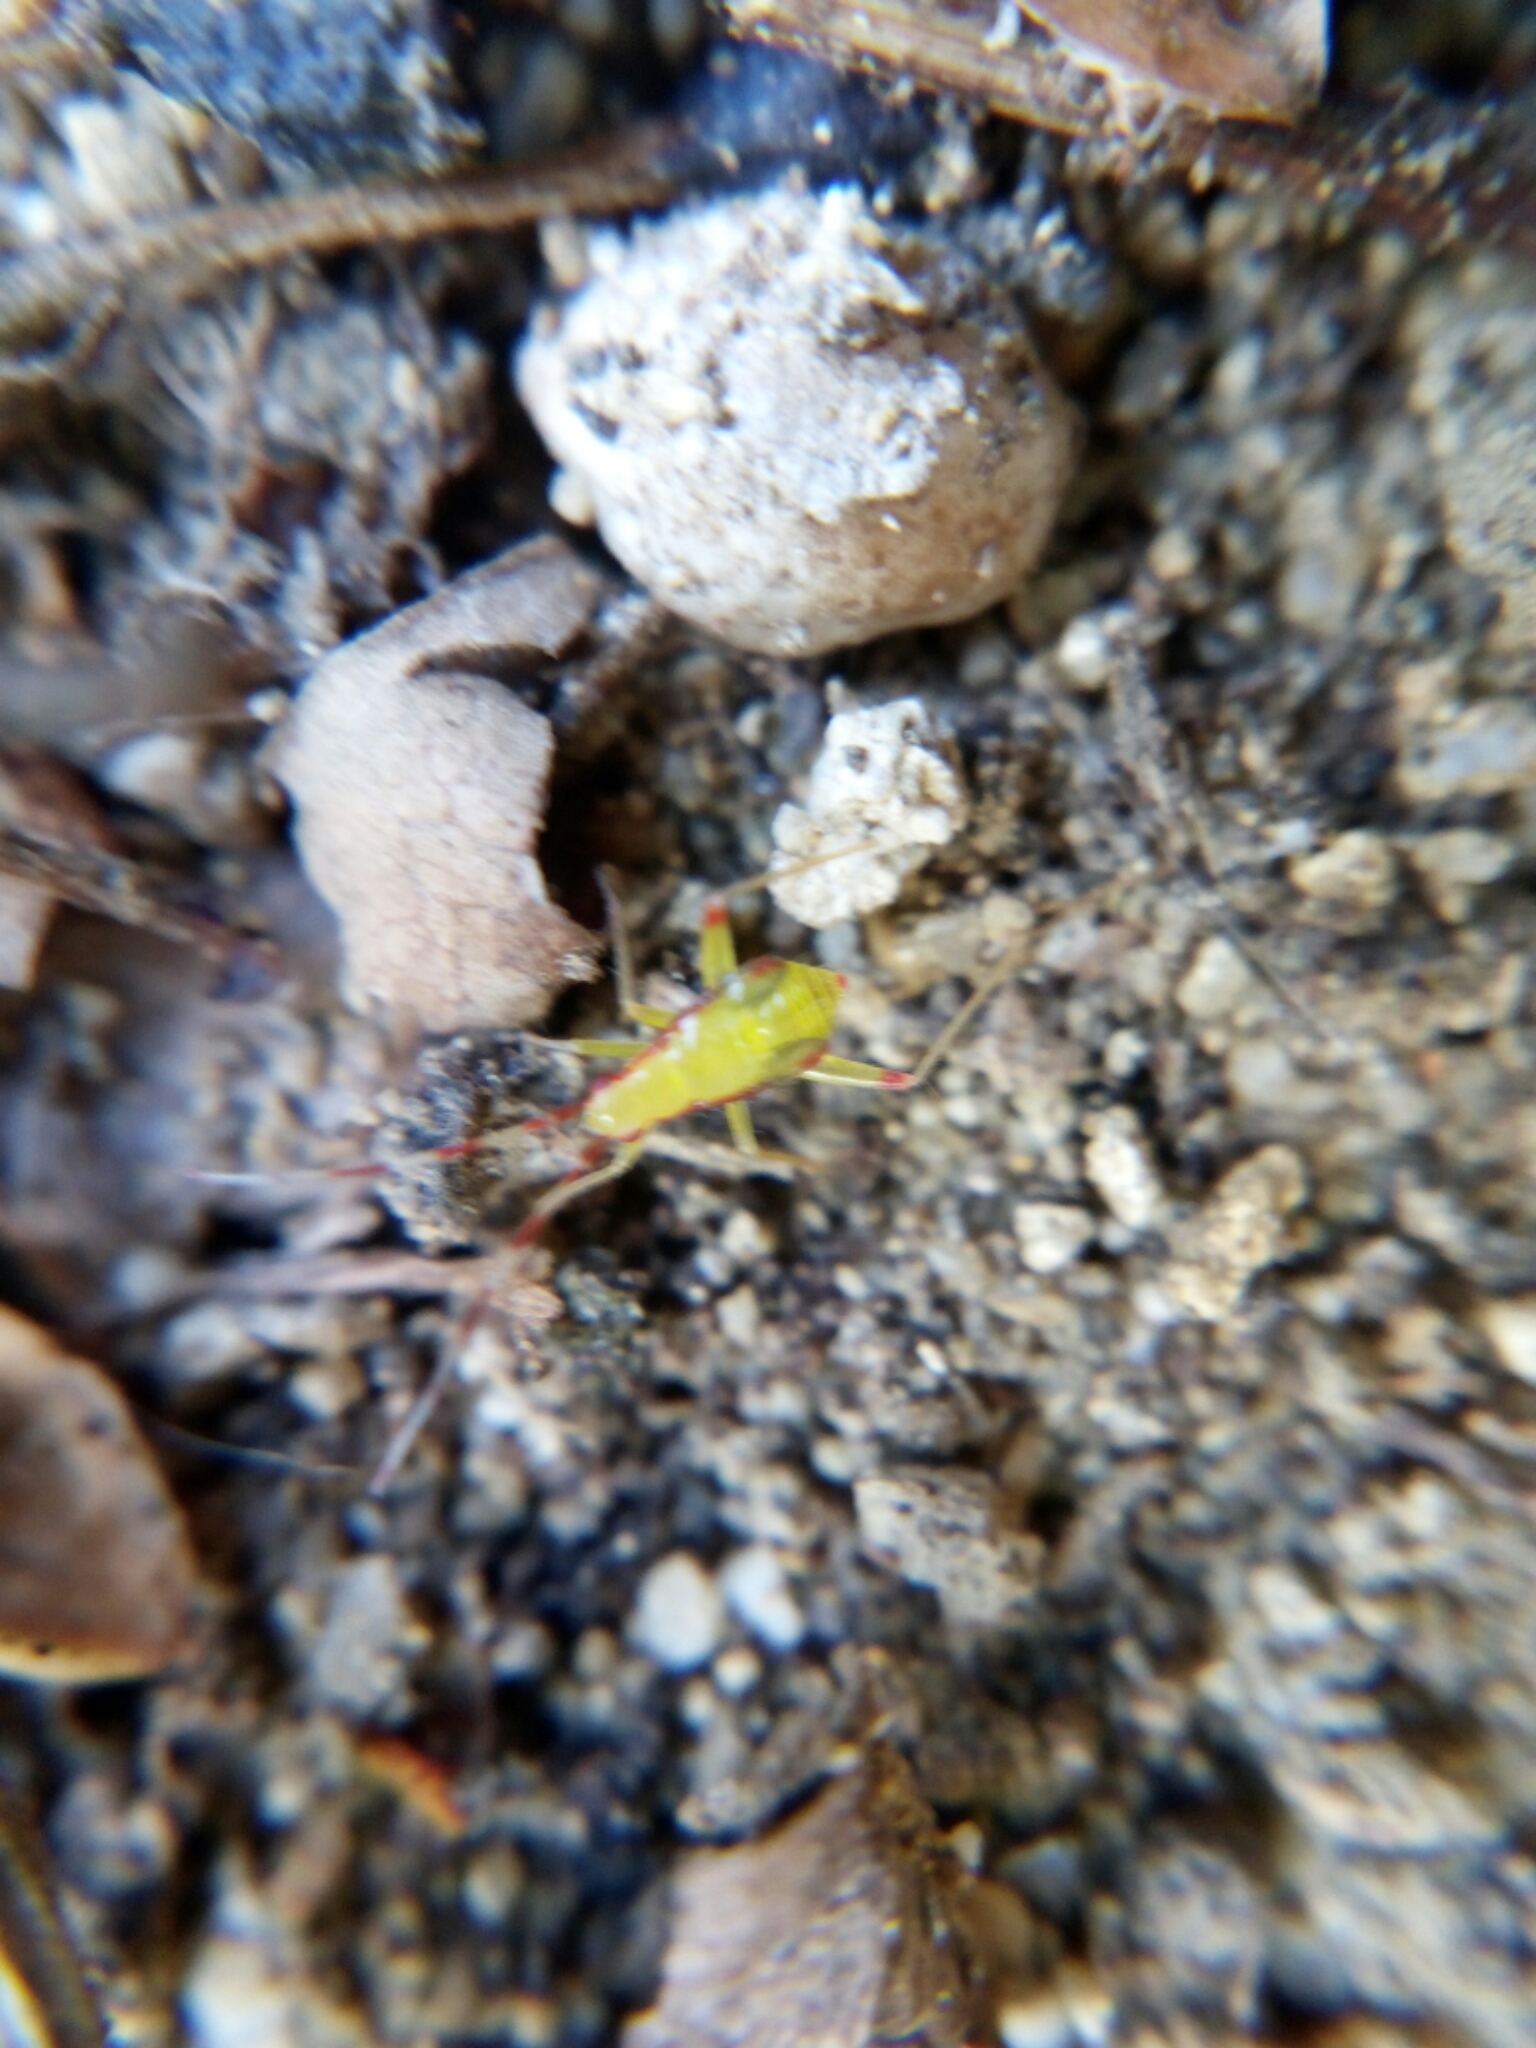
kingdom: Animalia
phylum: Arthropoda
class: Insecta
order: Hemiptera
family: Miridae
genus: Campyloneura
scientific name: Campyloneura virgula
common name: Predatory bug
